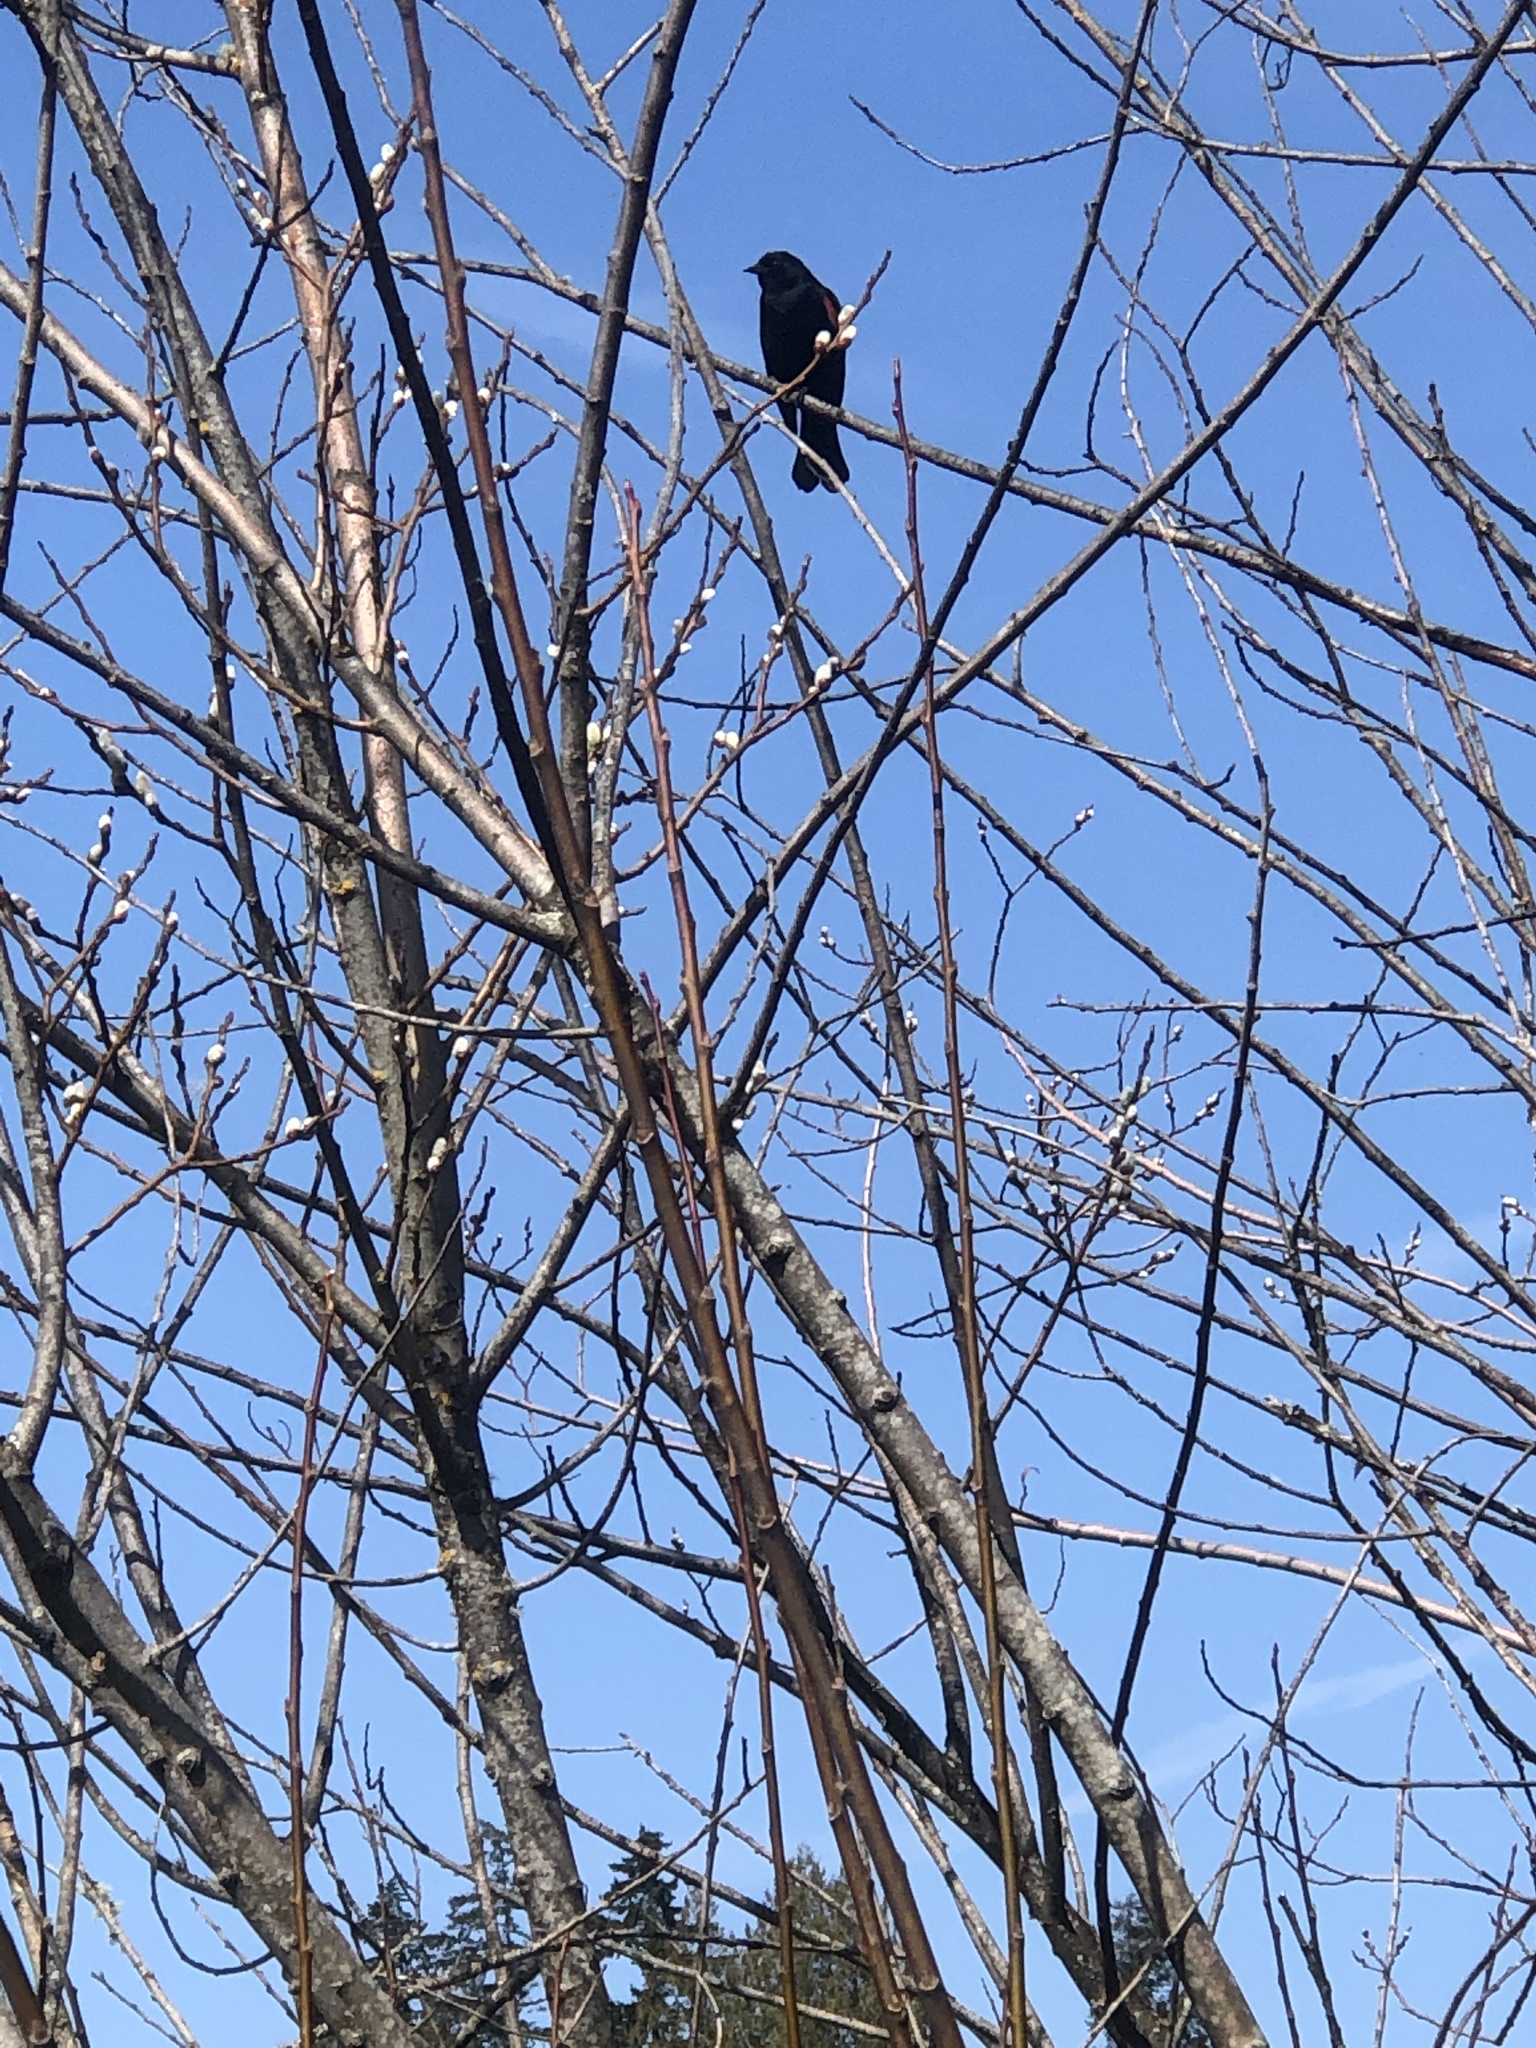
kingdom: Animalia
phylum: Chordata
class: Aves
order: Passeriformes
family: Icteridae
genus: Agelaius
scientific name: Agelaius phoeniceus
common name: Red-winged blackbird
